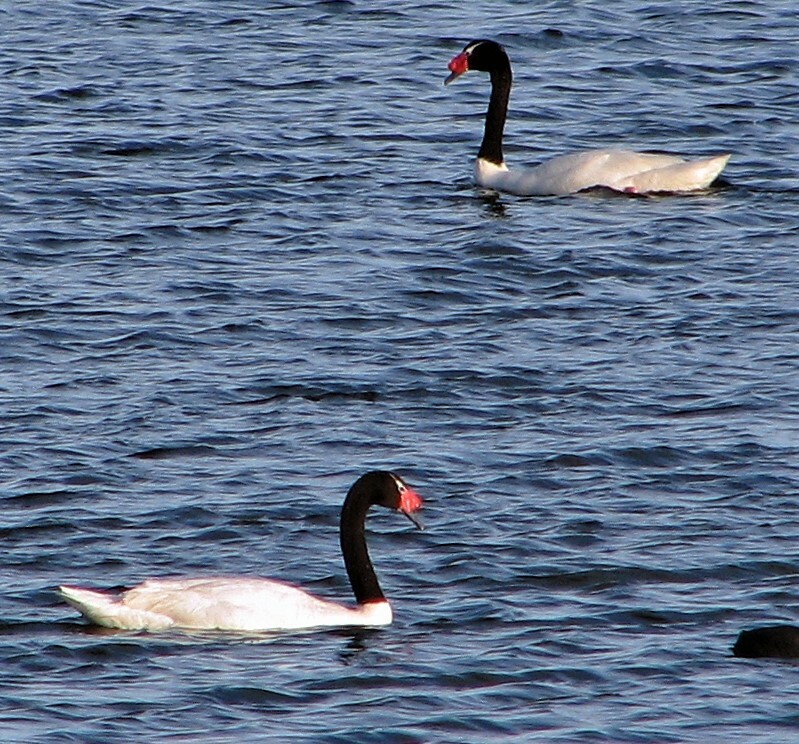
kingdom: Animalia
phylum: Chordata
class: Aves
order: Anseriformes
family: Anatidae
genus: Cygnus
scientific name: Cygnus melancoryphus
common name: Black-necked swan
